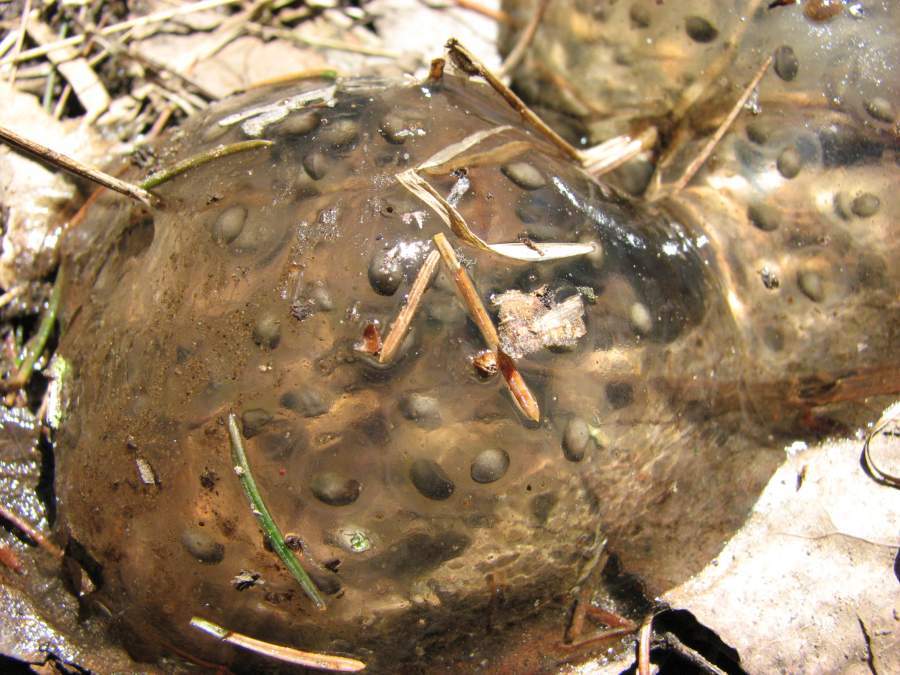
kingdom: Animalia
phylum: Chordata
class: Amphibia
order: Caudata
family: Ambystomatidae
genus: Ambystoma
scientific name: Ambystoma maculatum
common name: Spotted salamander
